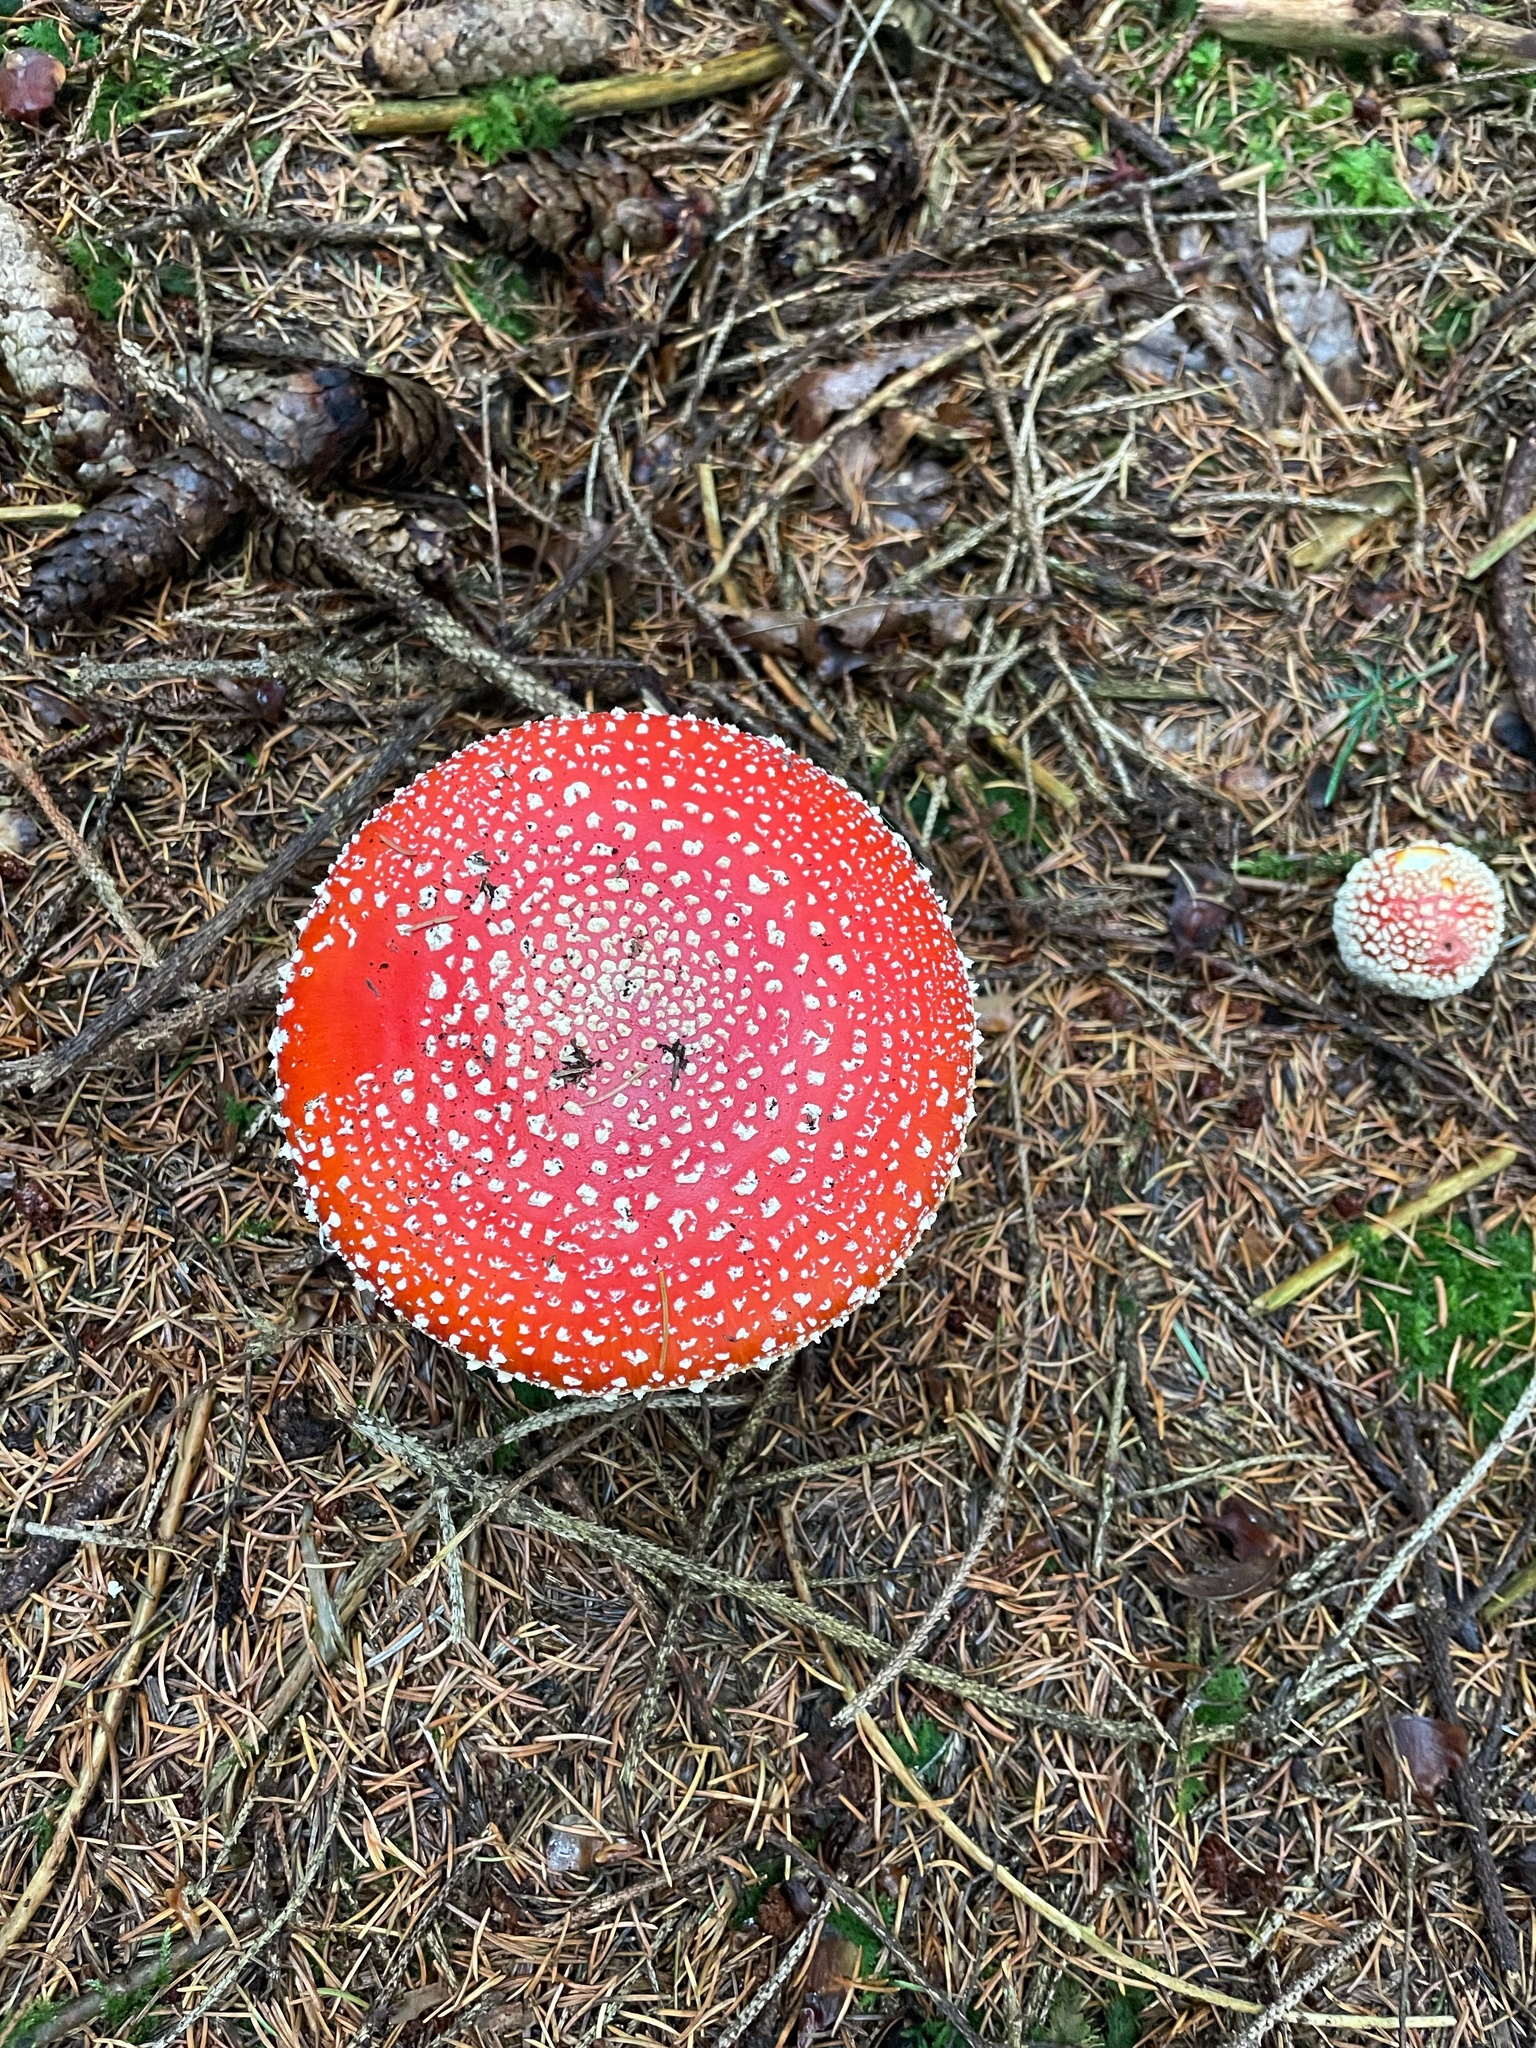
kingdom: Fungi
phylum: Basidiomycota
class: Agaricomycetes
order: Agaricales
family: Amanitaceae
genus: Amanita
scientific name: Amanita muscaria
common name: Fly agaric
